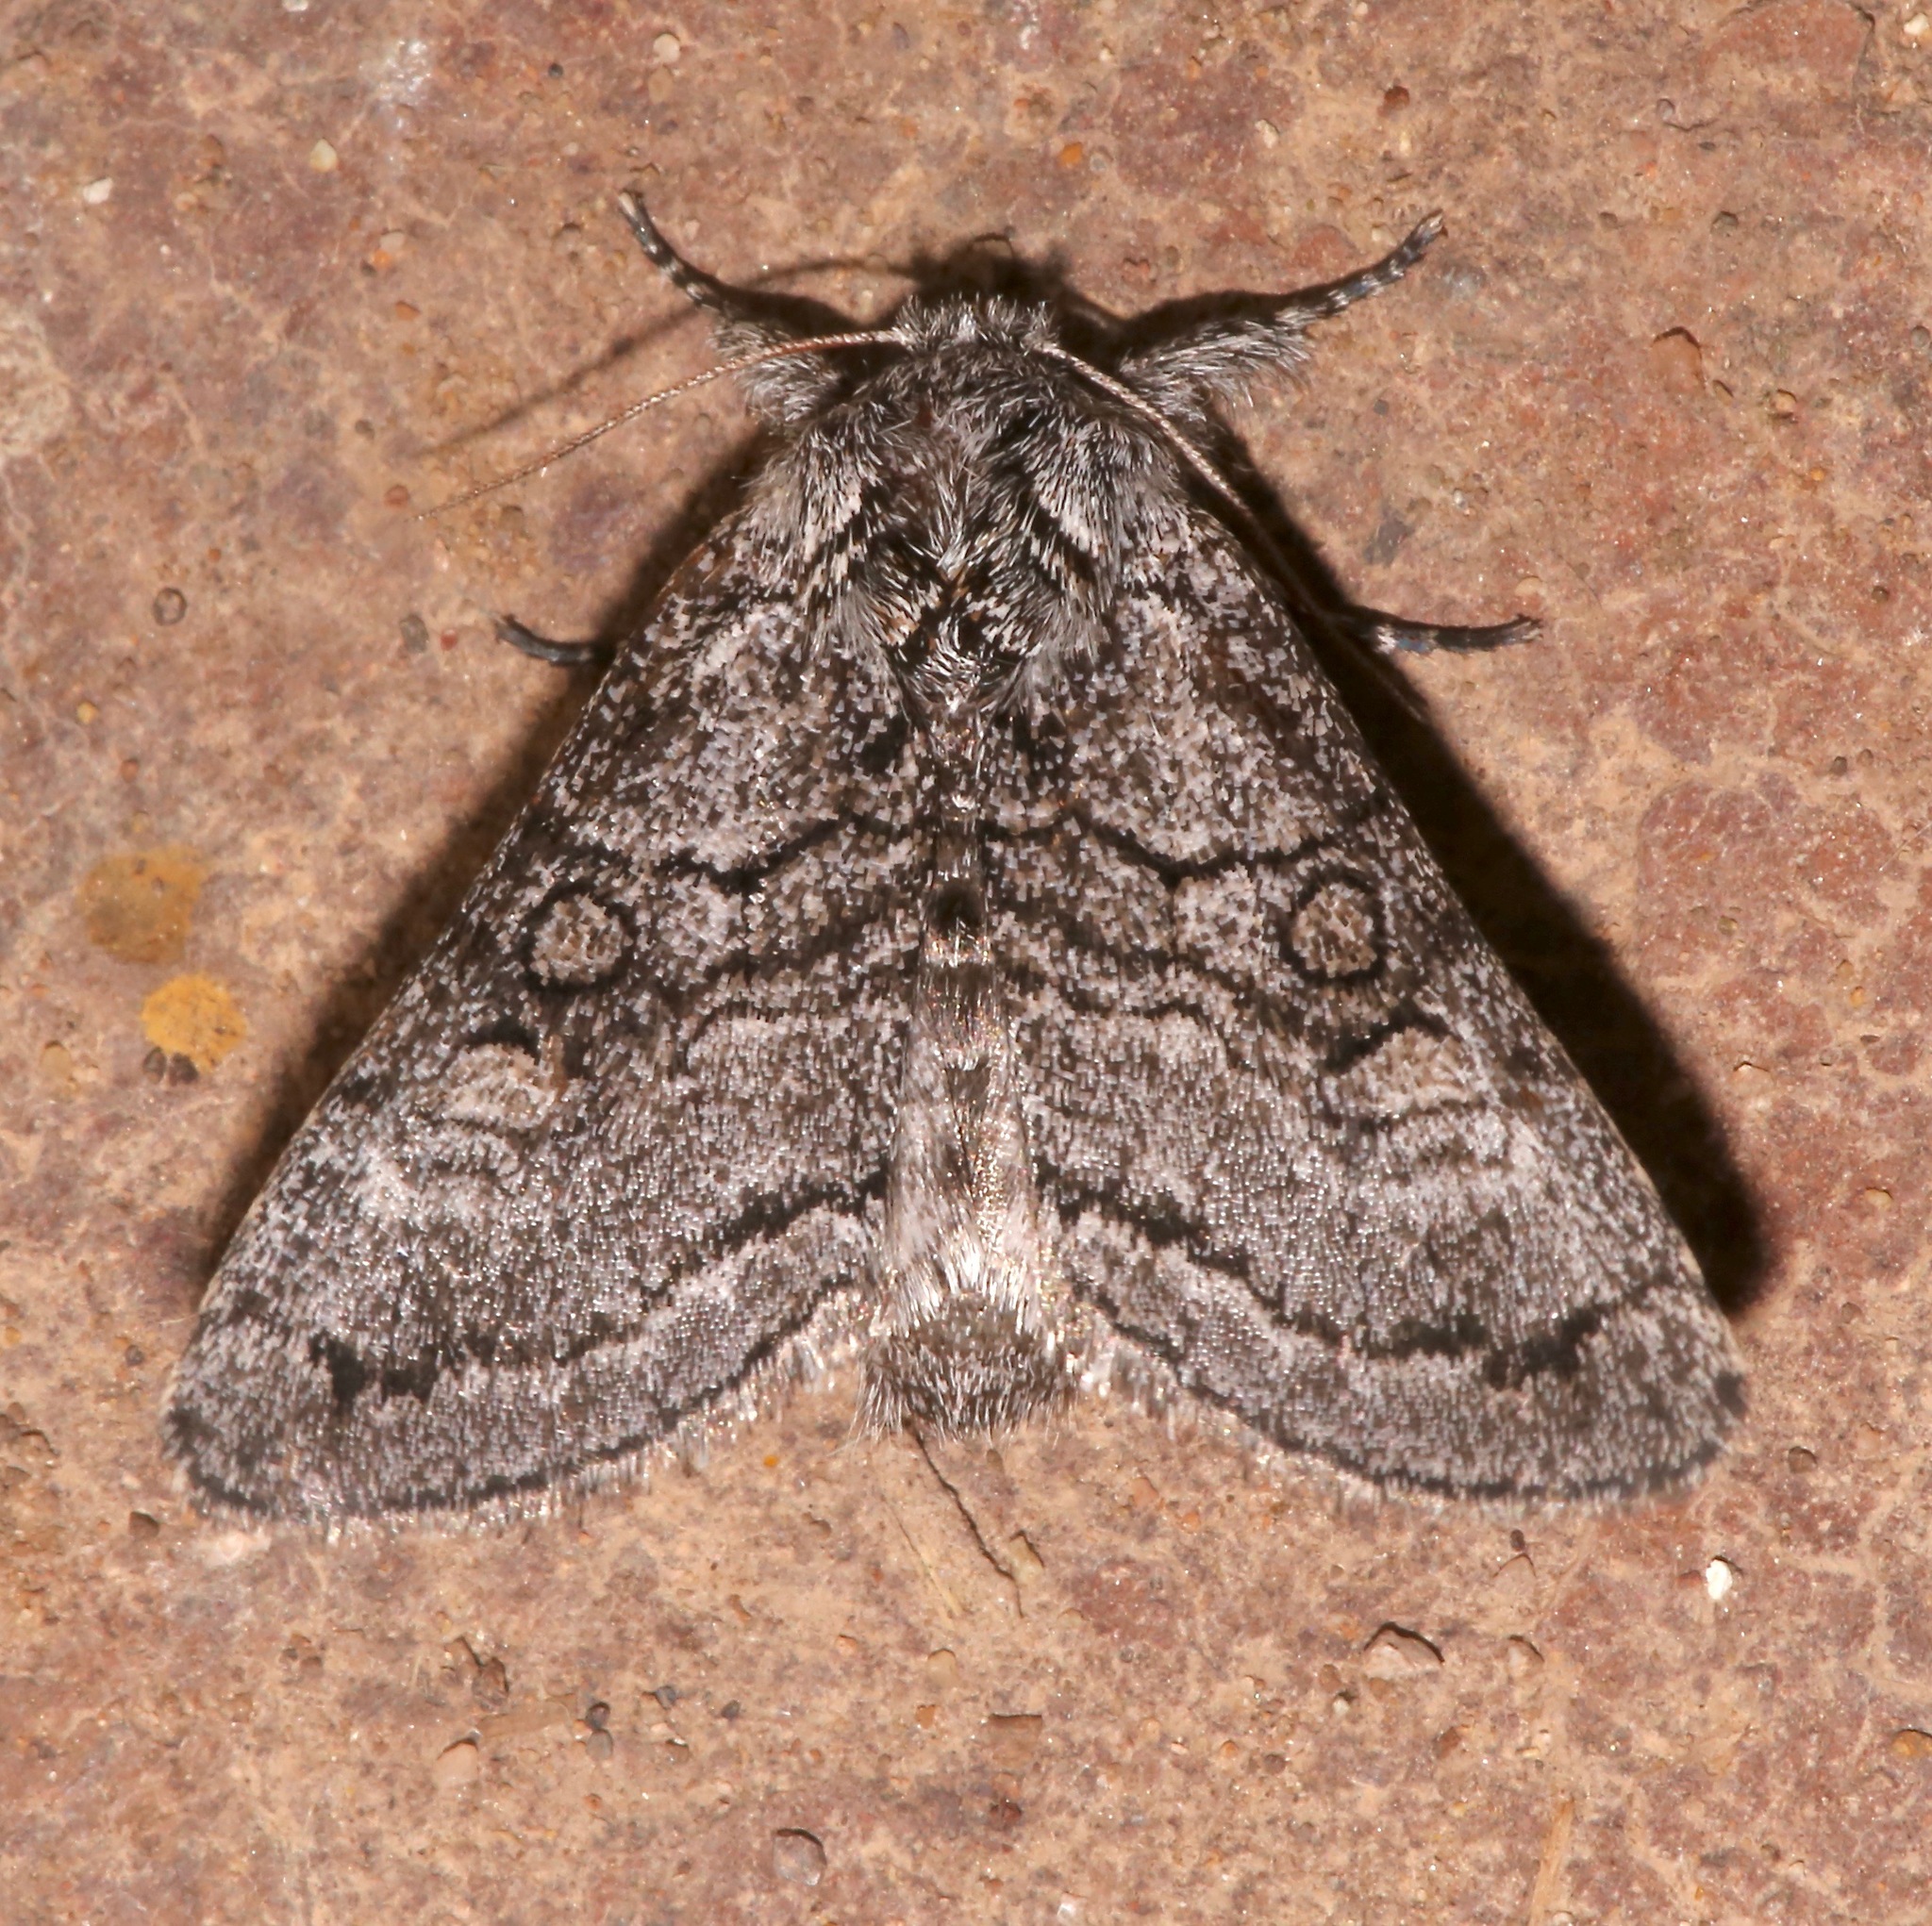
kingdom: Animalia
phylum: Arthropoda
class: Insecta
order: Lepidoptera
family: Noctuidae
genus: Pseudopanthea
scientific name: Pseudopanthea palata
